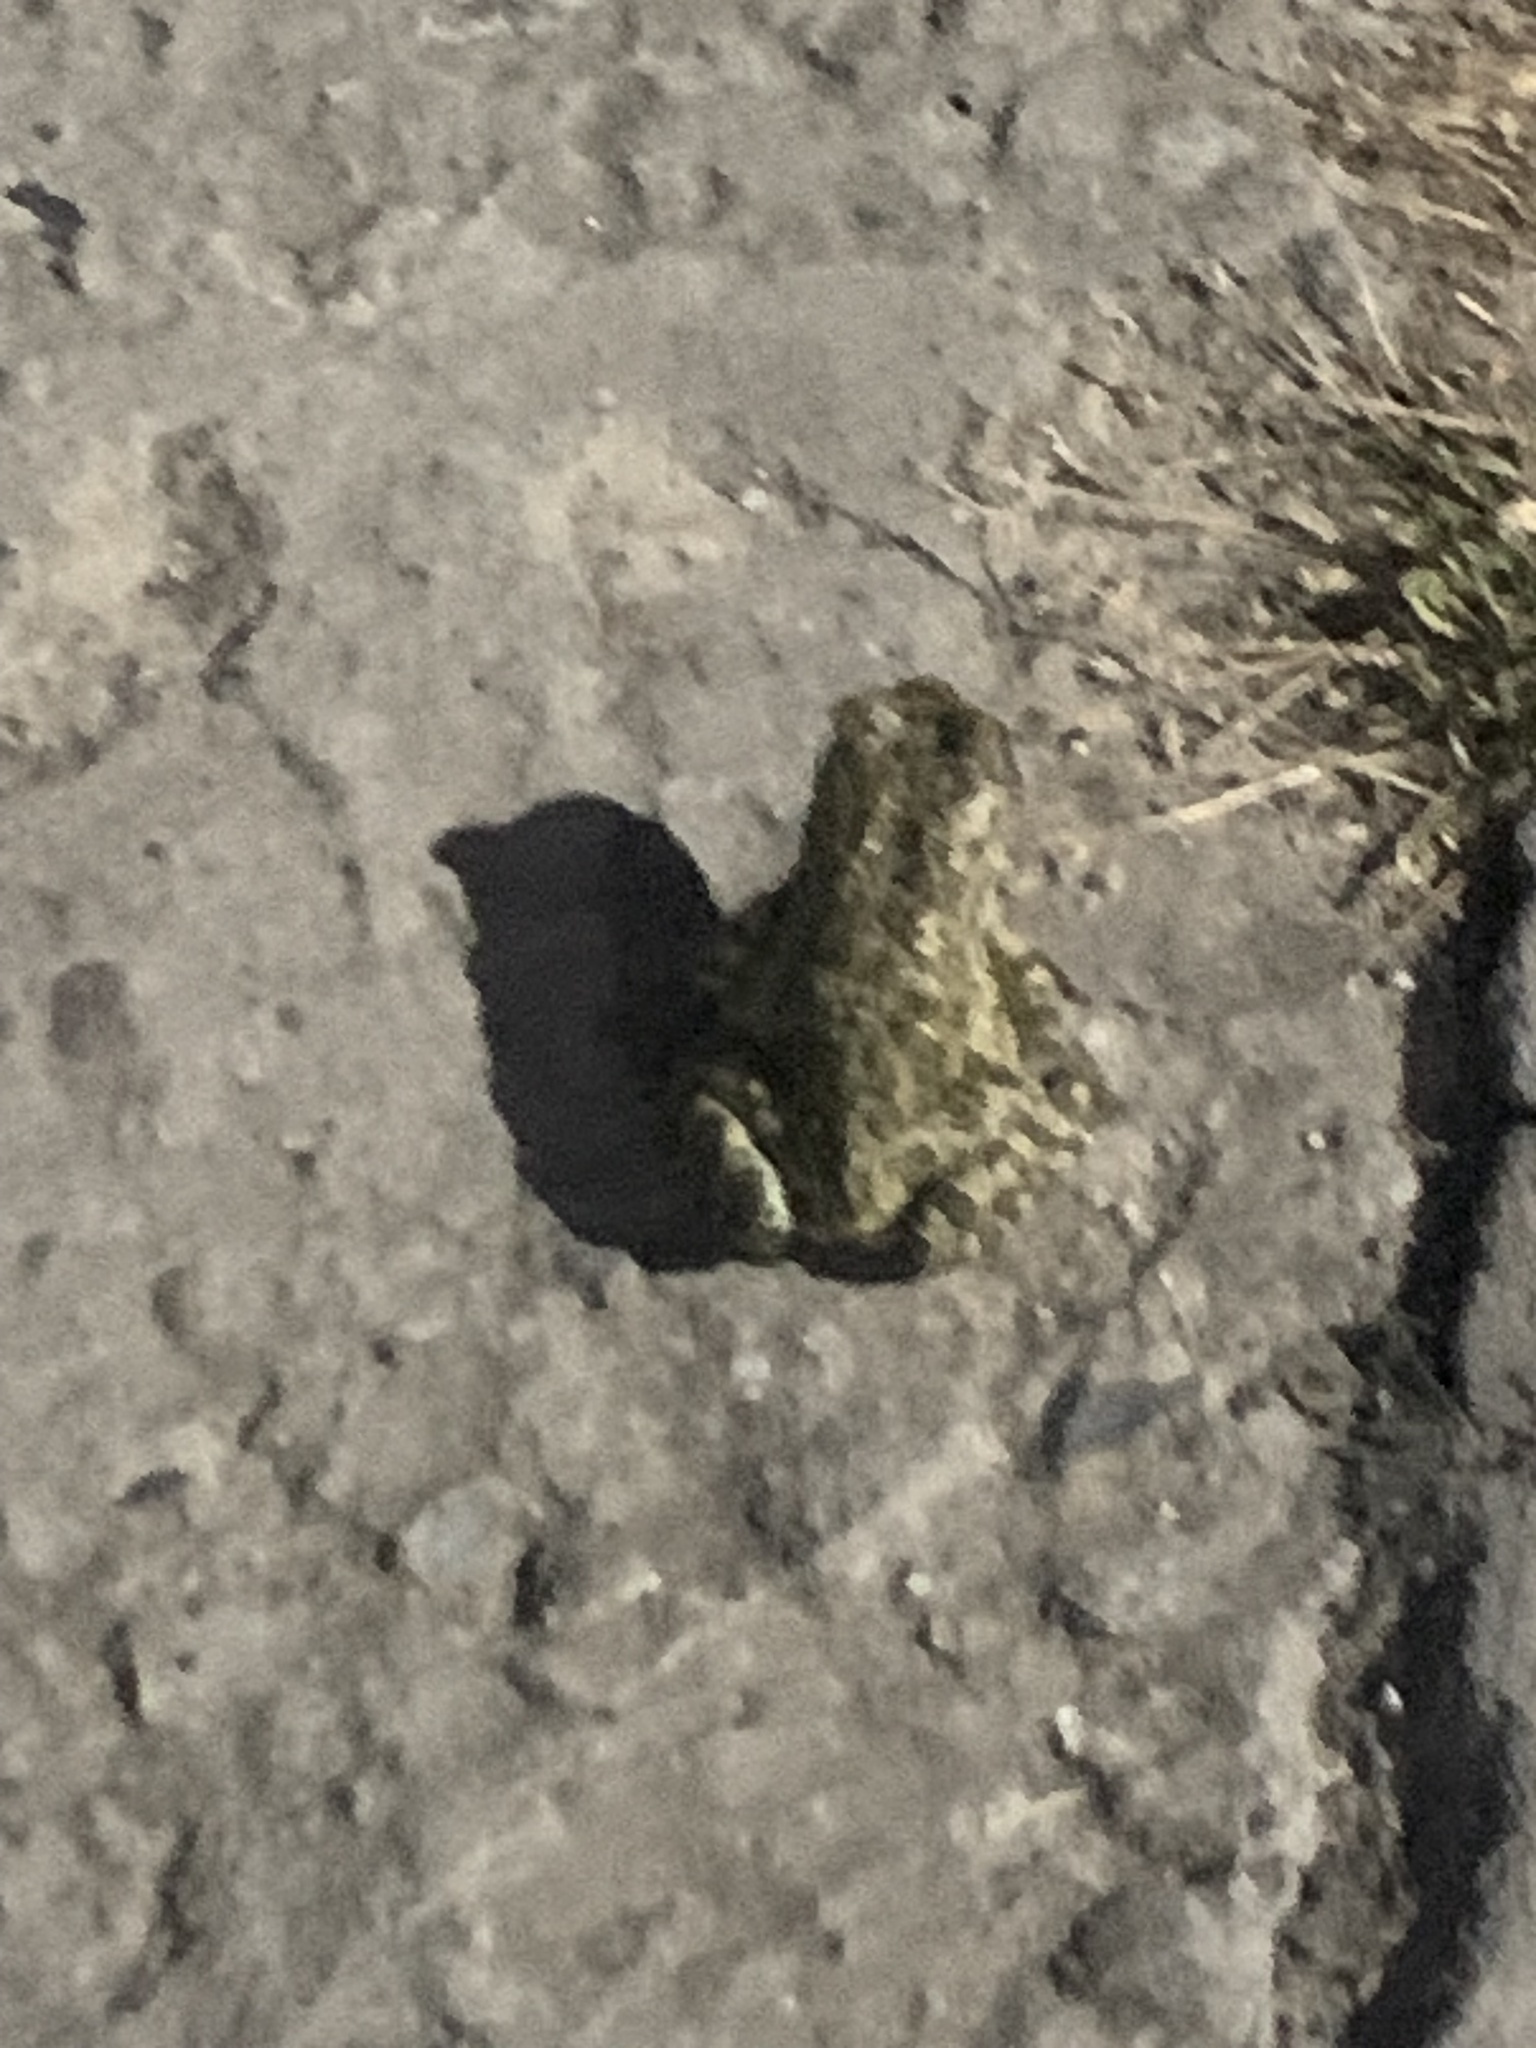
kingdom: Animalia
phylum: Chordata
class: Amphibia
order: Anura
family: Bufonidae
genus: Bufotes
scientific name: Bufotes viridis
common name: European green toad
